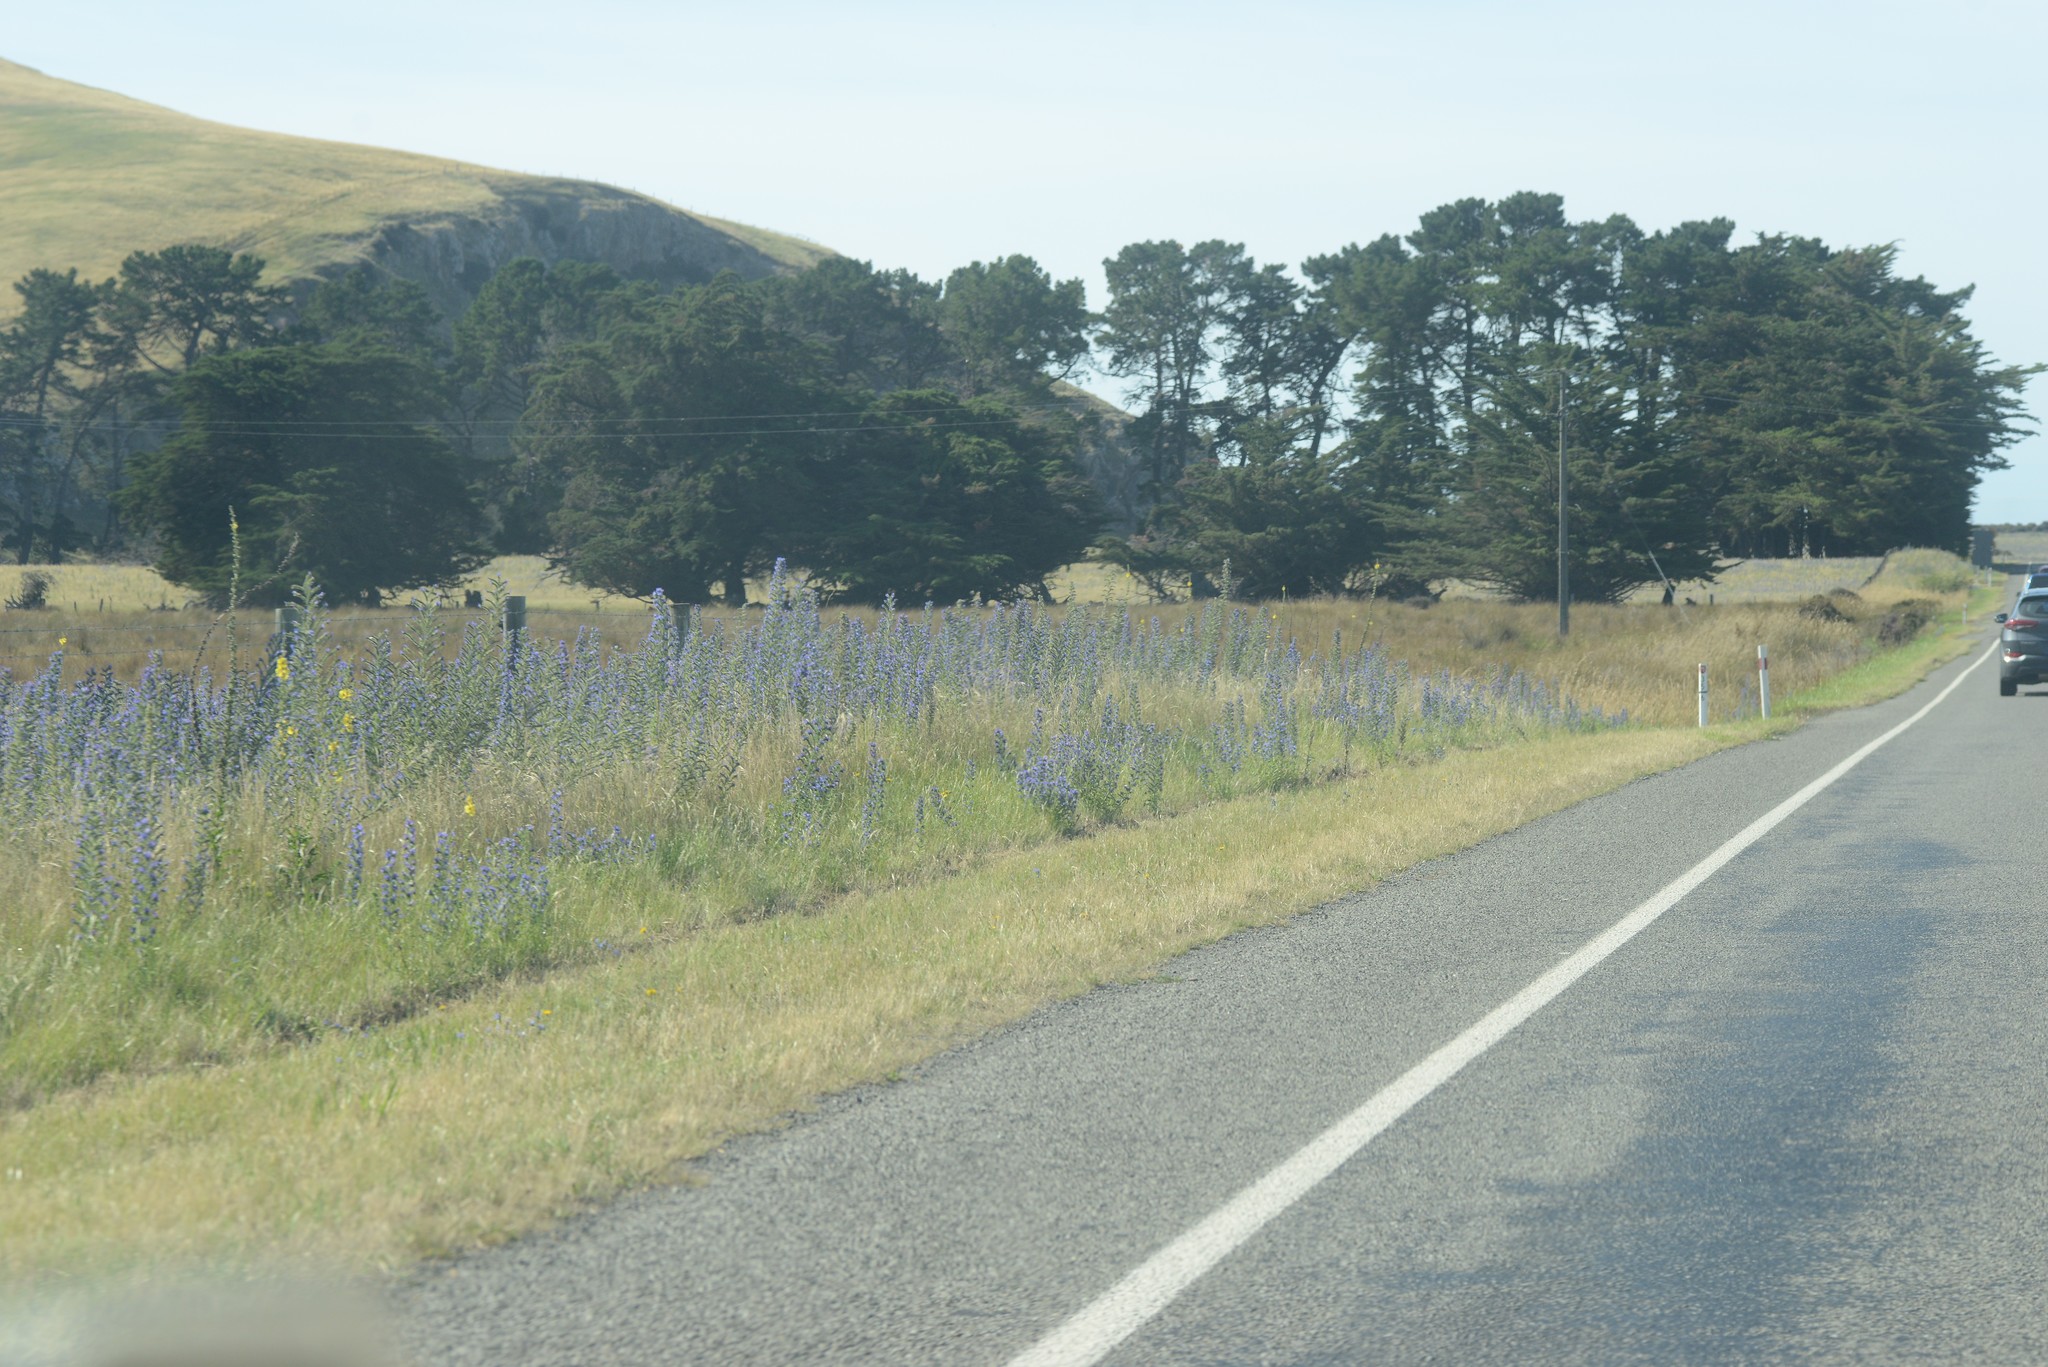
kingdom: Plantae
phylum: Tracheophyta
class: Magnoliopsida
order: Boraginales
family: Boraginaceae
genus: Echium
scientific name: Echium vulgare
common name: Common viper's bugloss
